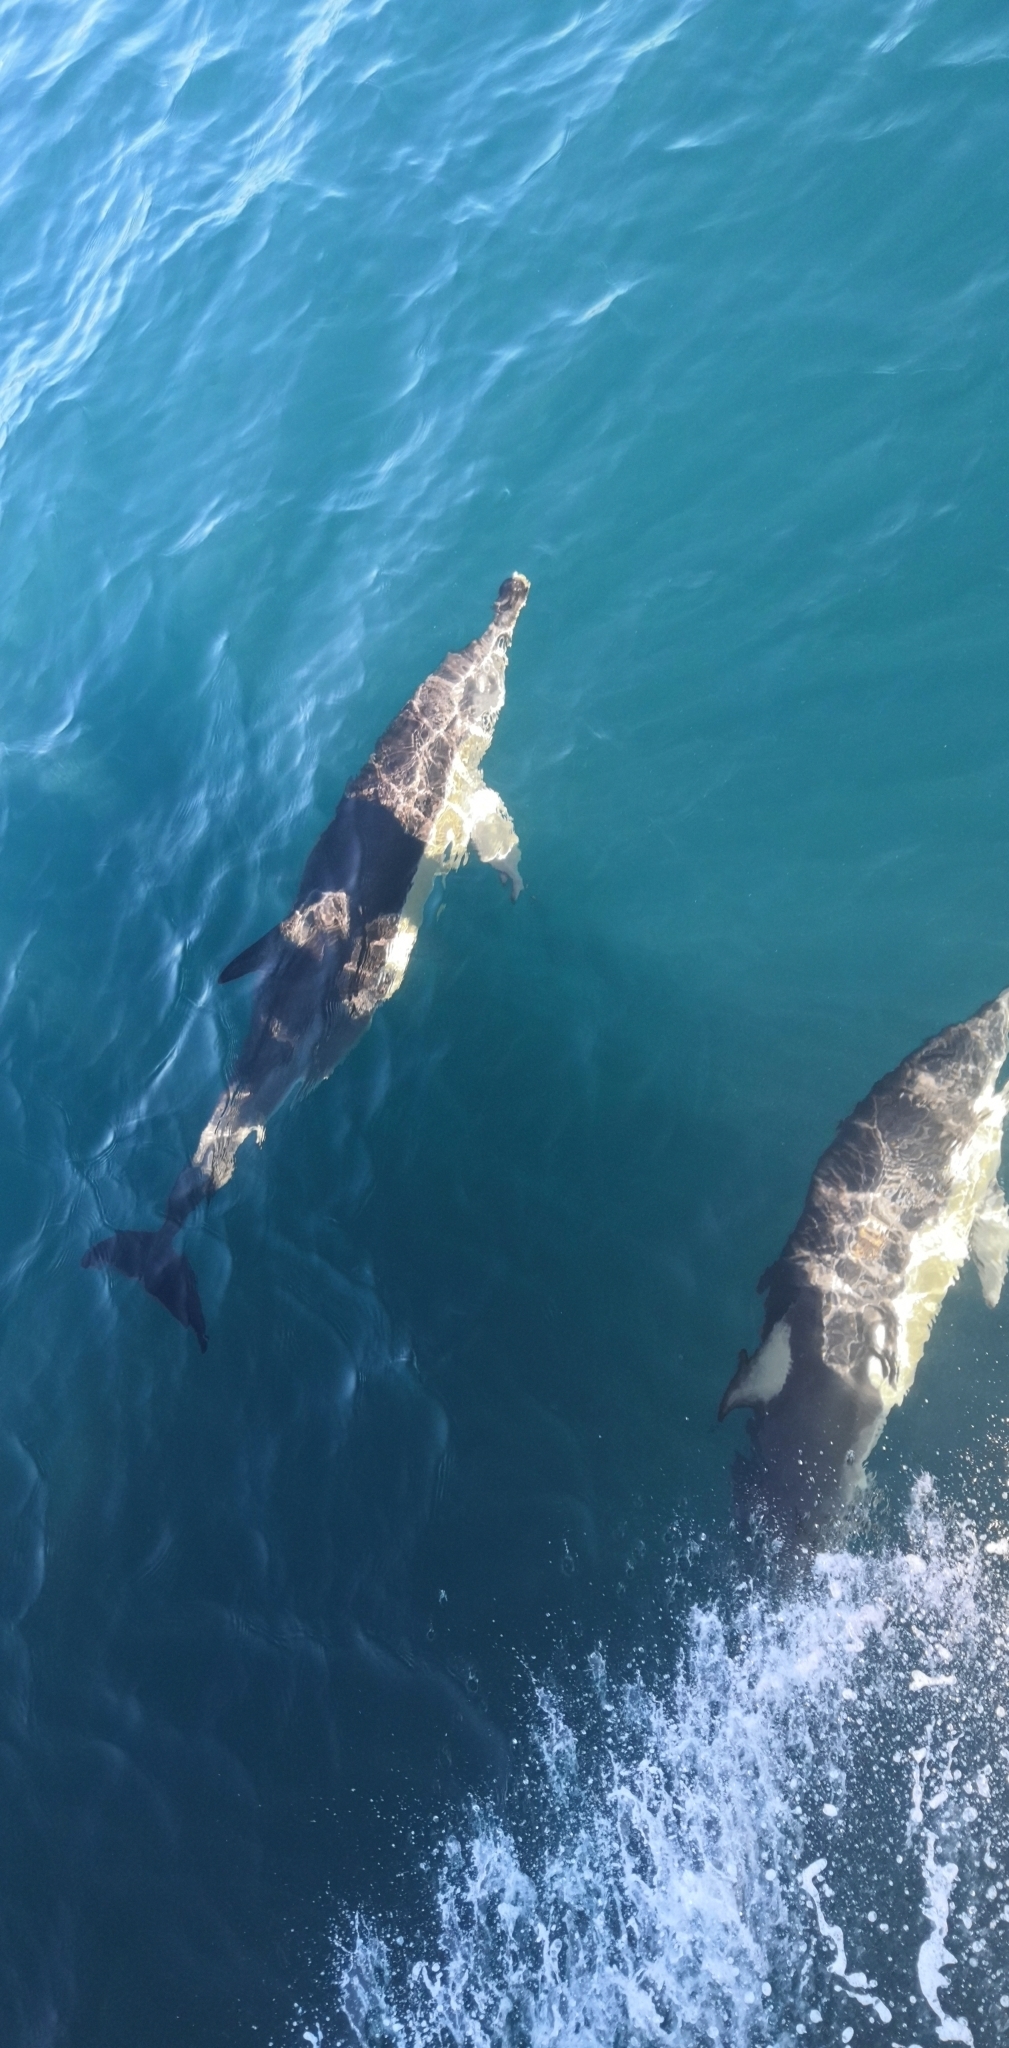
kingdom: Animalia
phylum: Chordata
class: Mammalia
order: Cetacea
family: Delphinidae
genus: Delphinus
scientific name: Delphinus delphis
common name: Common dolphin
